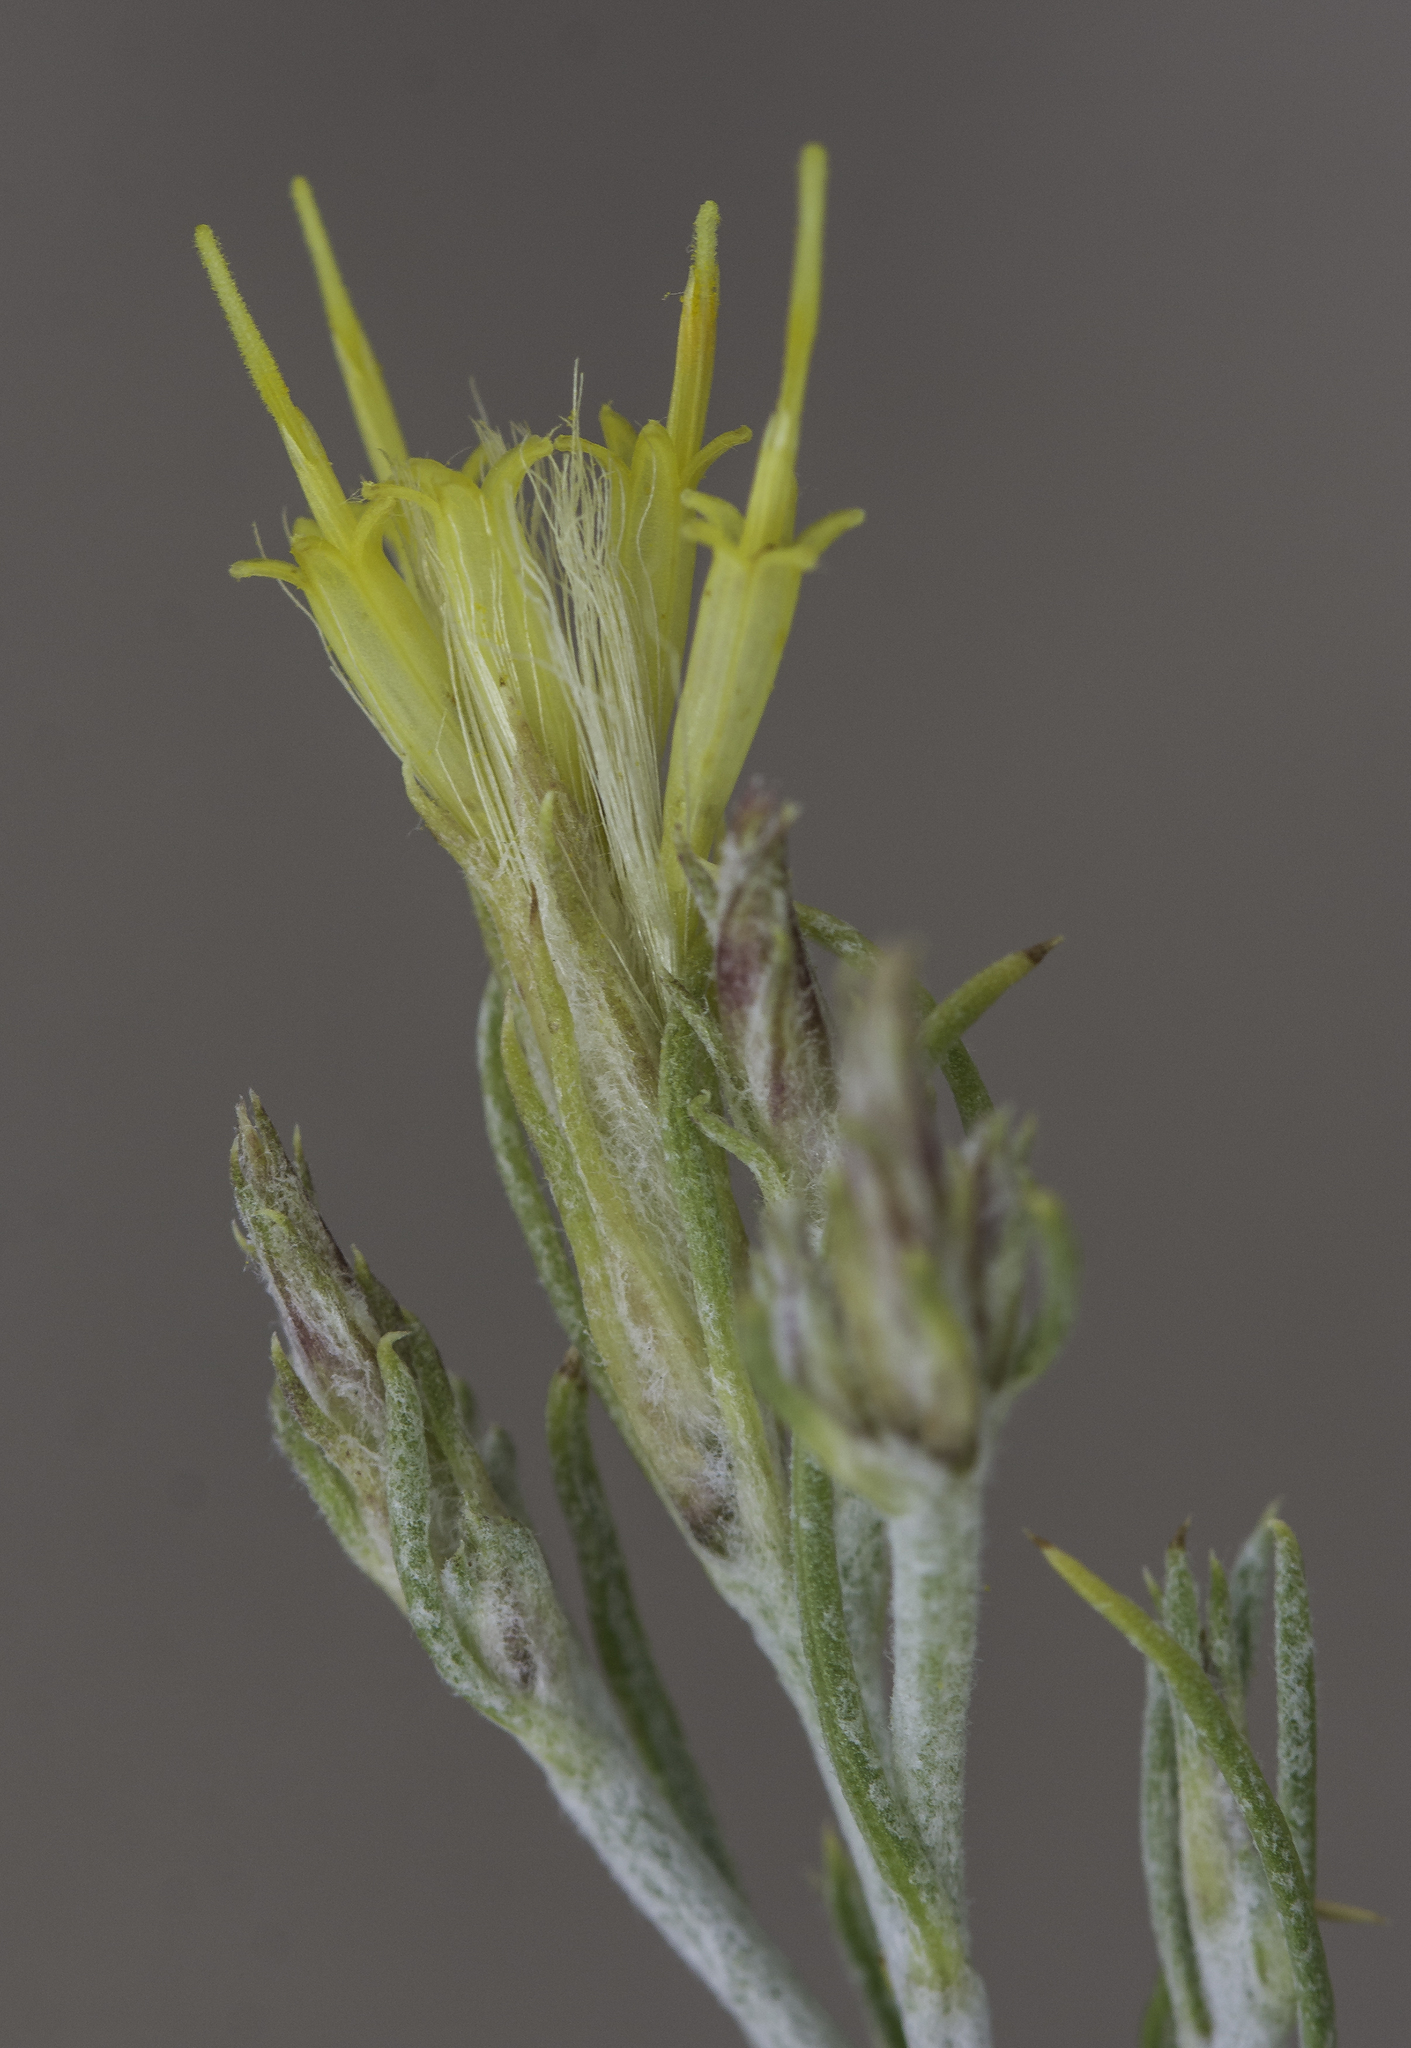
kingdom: Plantae
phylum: Tracheophyta
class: Magnoliopsida
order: Asterales
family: Asteraceae
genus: Ericameria
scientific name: Ericameria parryi
